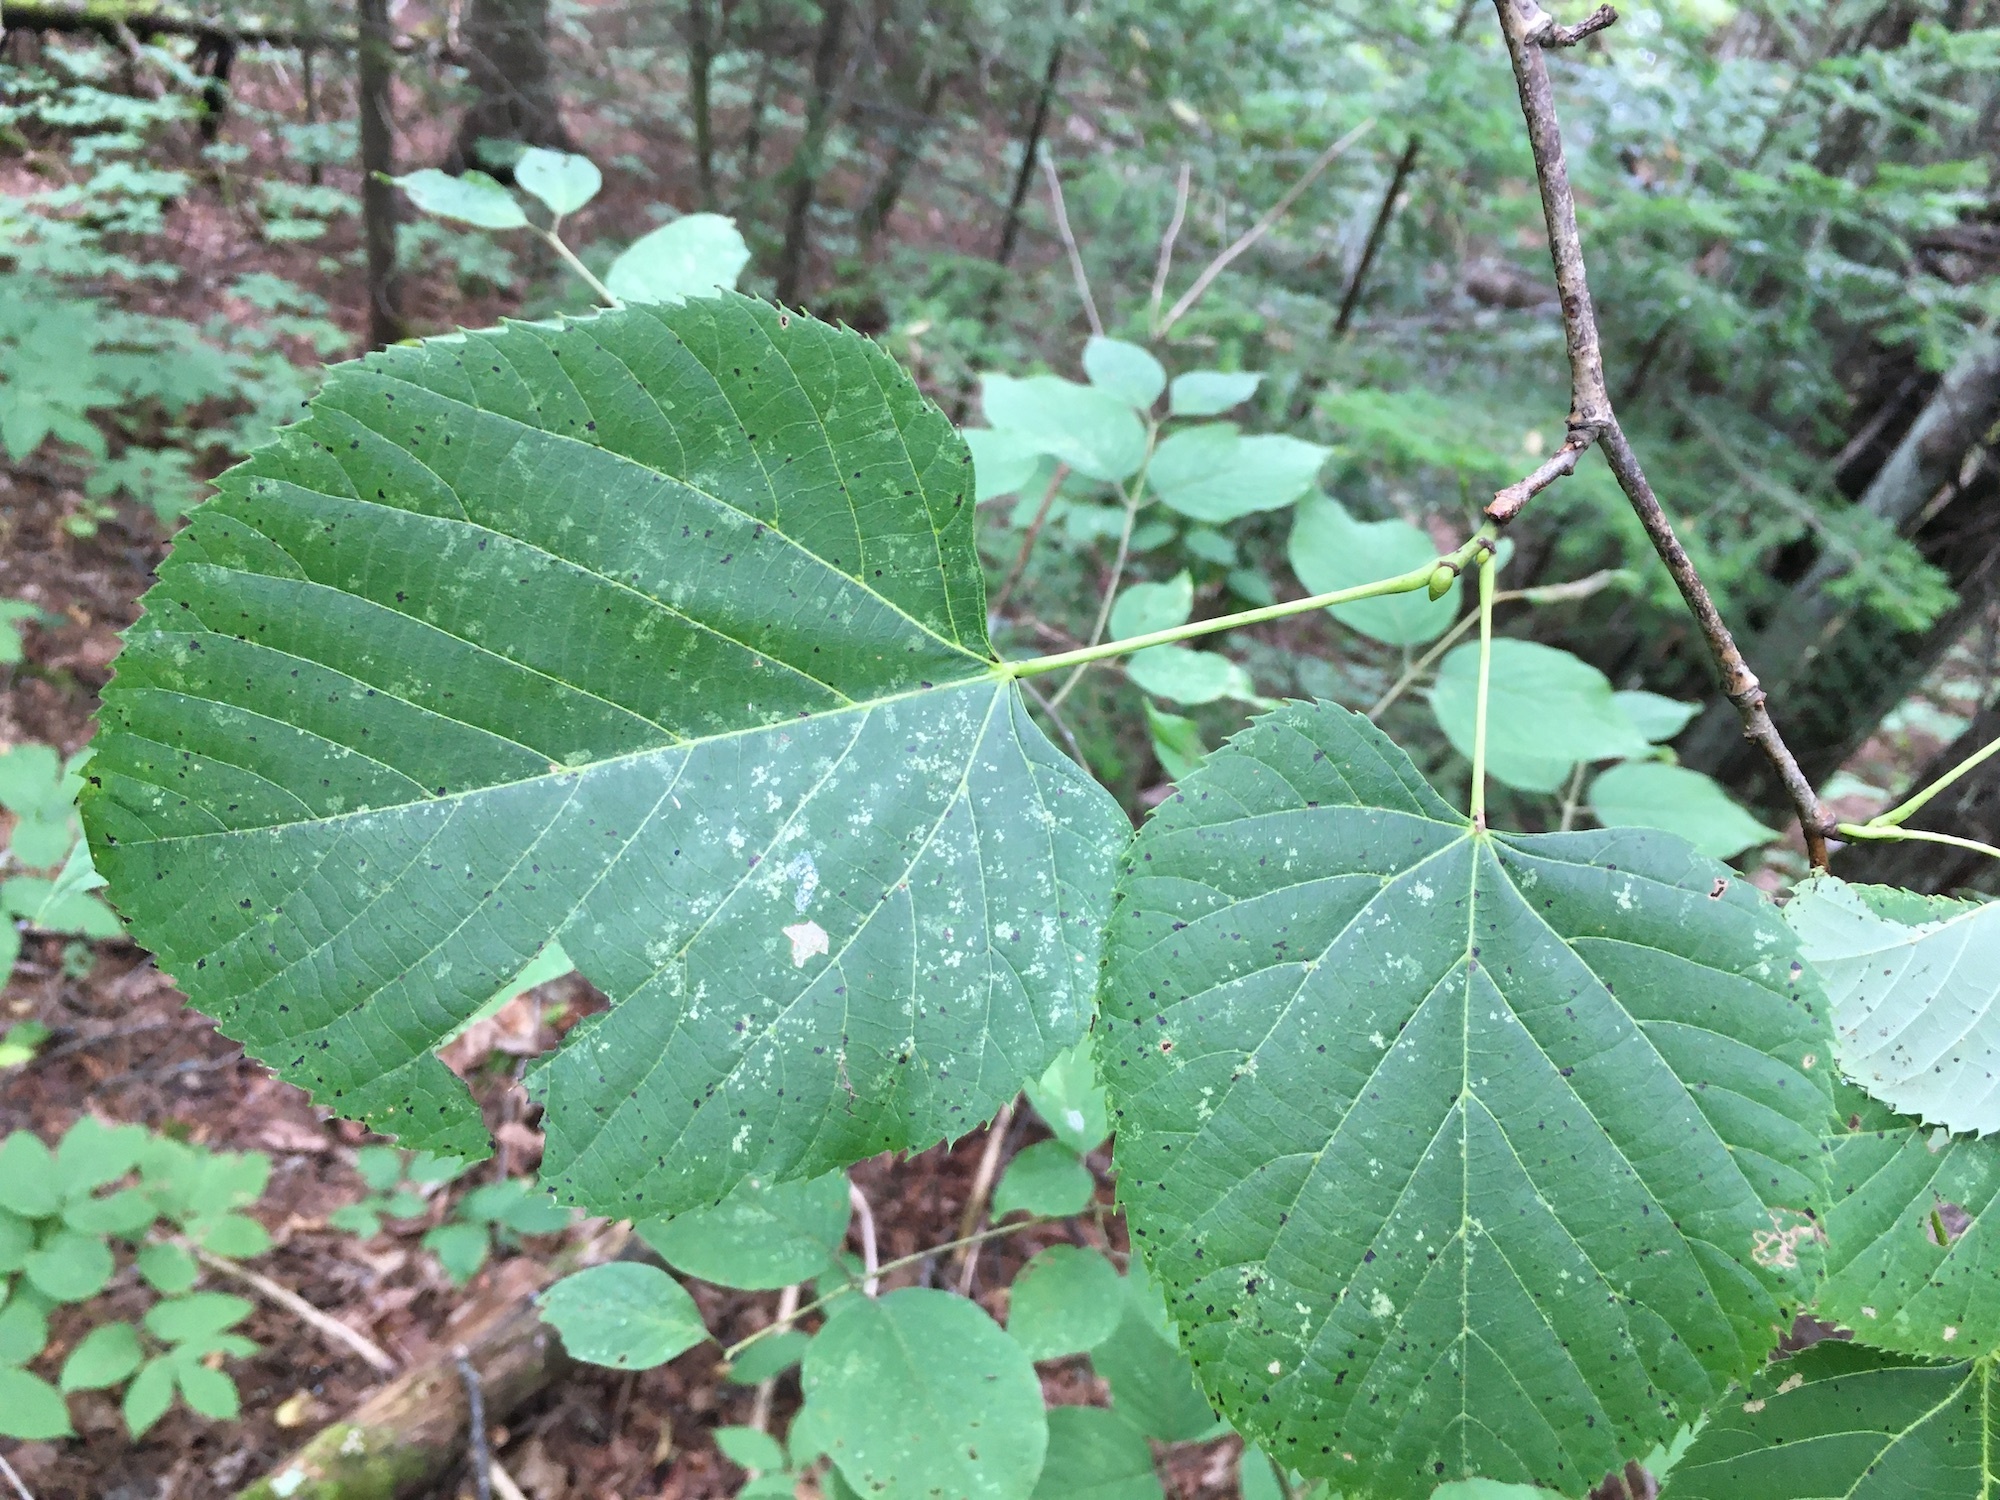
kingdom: Plantae
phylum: Tracheophyta
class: Magnoliopsida
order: Malvales
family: Malvaceae
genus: Tilia
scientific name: Tilia americana
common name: Basswood
